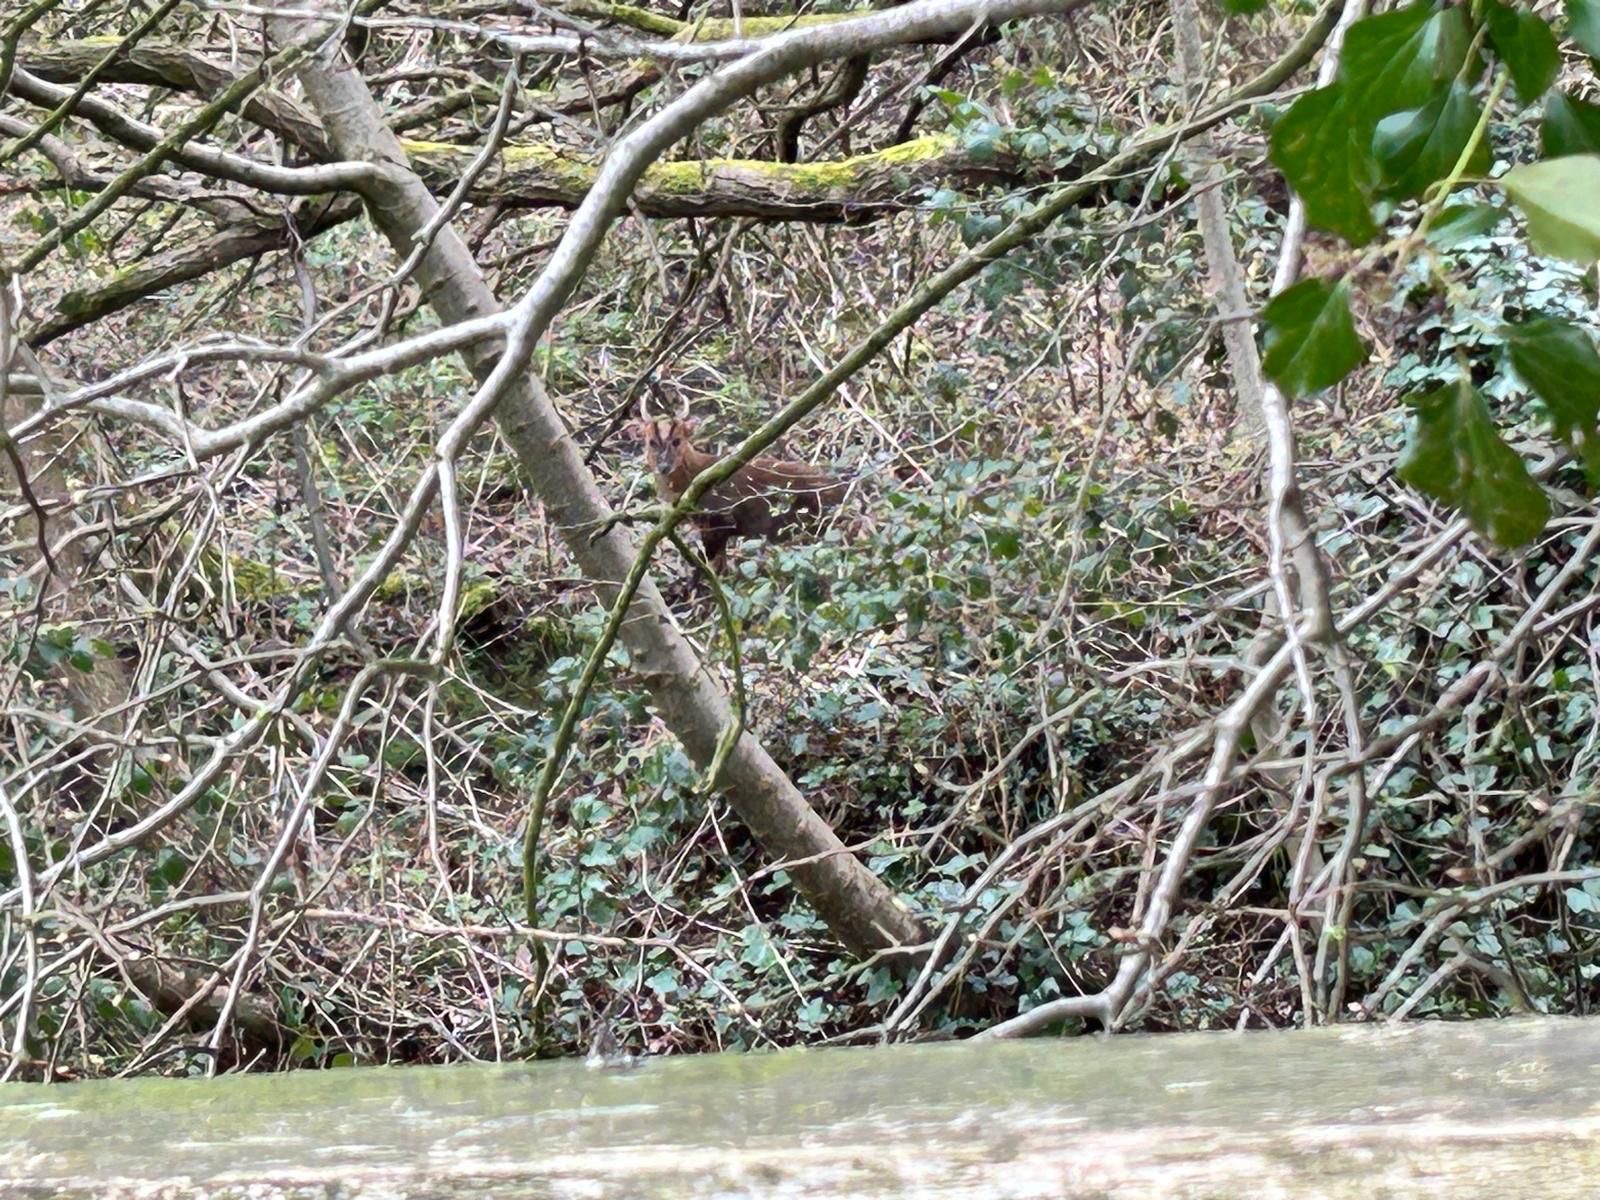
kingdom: Animalia
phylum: Chordata
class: Mammalia
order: Artiodactyla
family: Cervidae
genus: Muntiacus
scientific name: Muntiacus reevesi
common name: Reeves' muntjac
